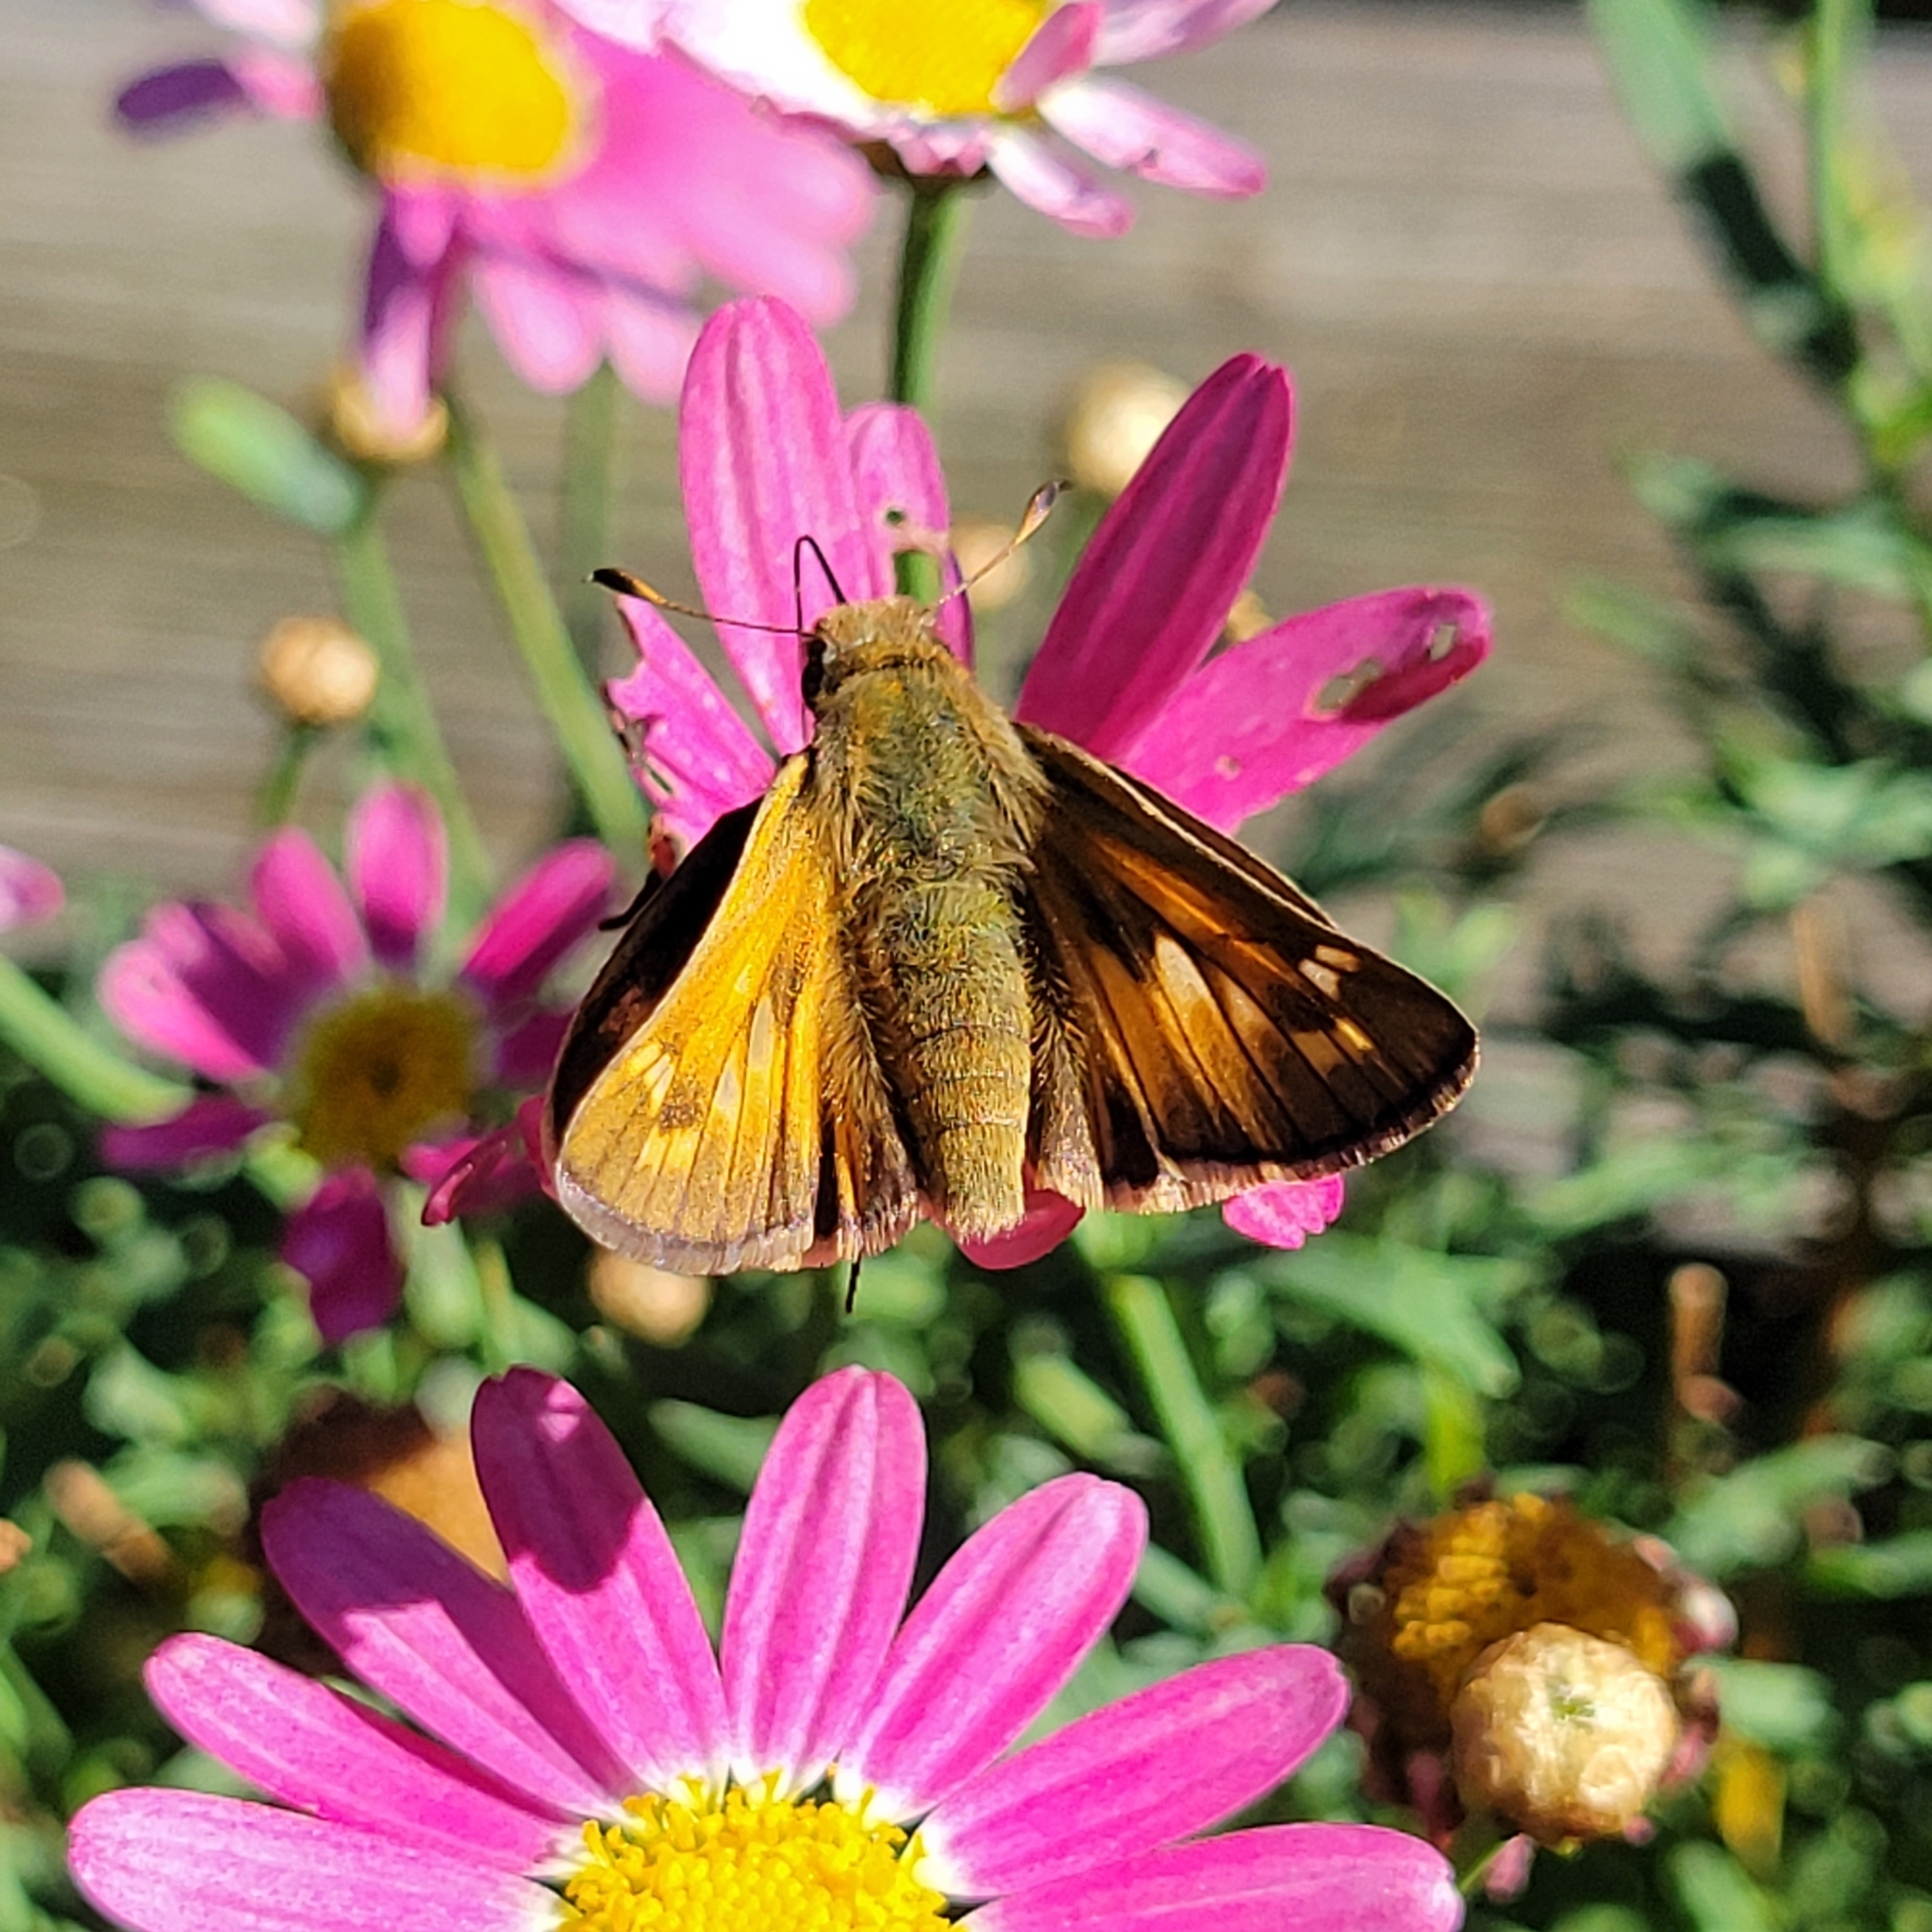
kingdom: Animalia
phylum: Arthropoda
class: Insecta
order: Lepidoptera
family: Hesperiidae
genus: Atalopedes
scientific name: Atalopedes
